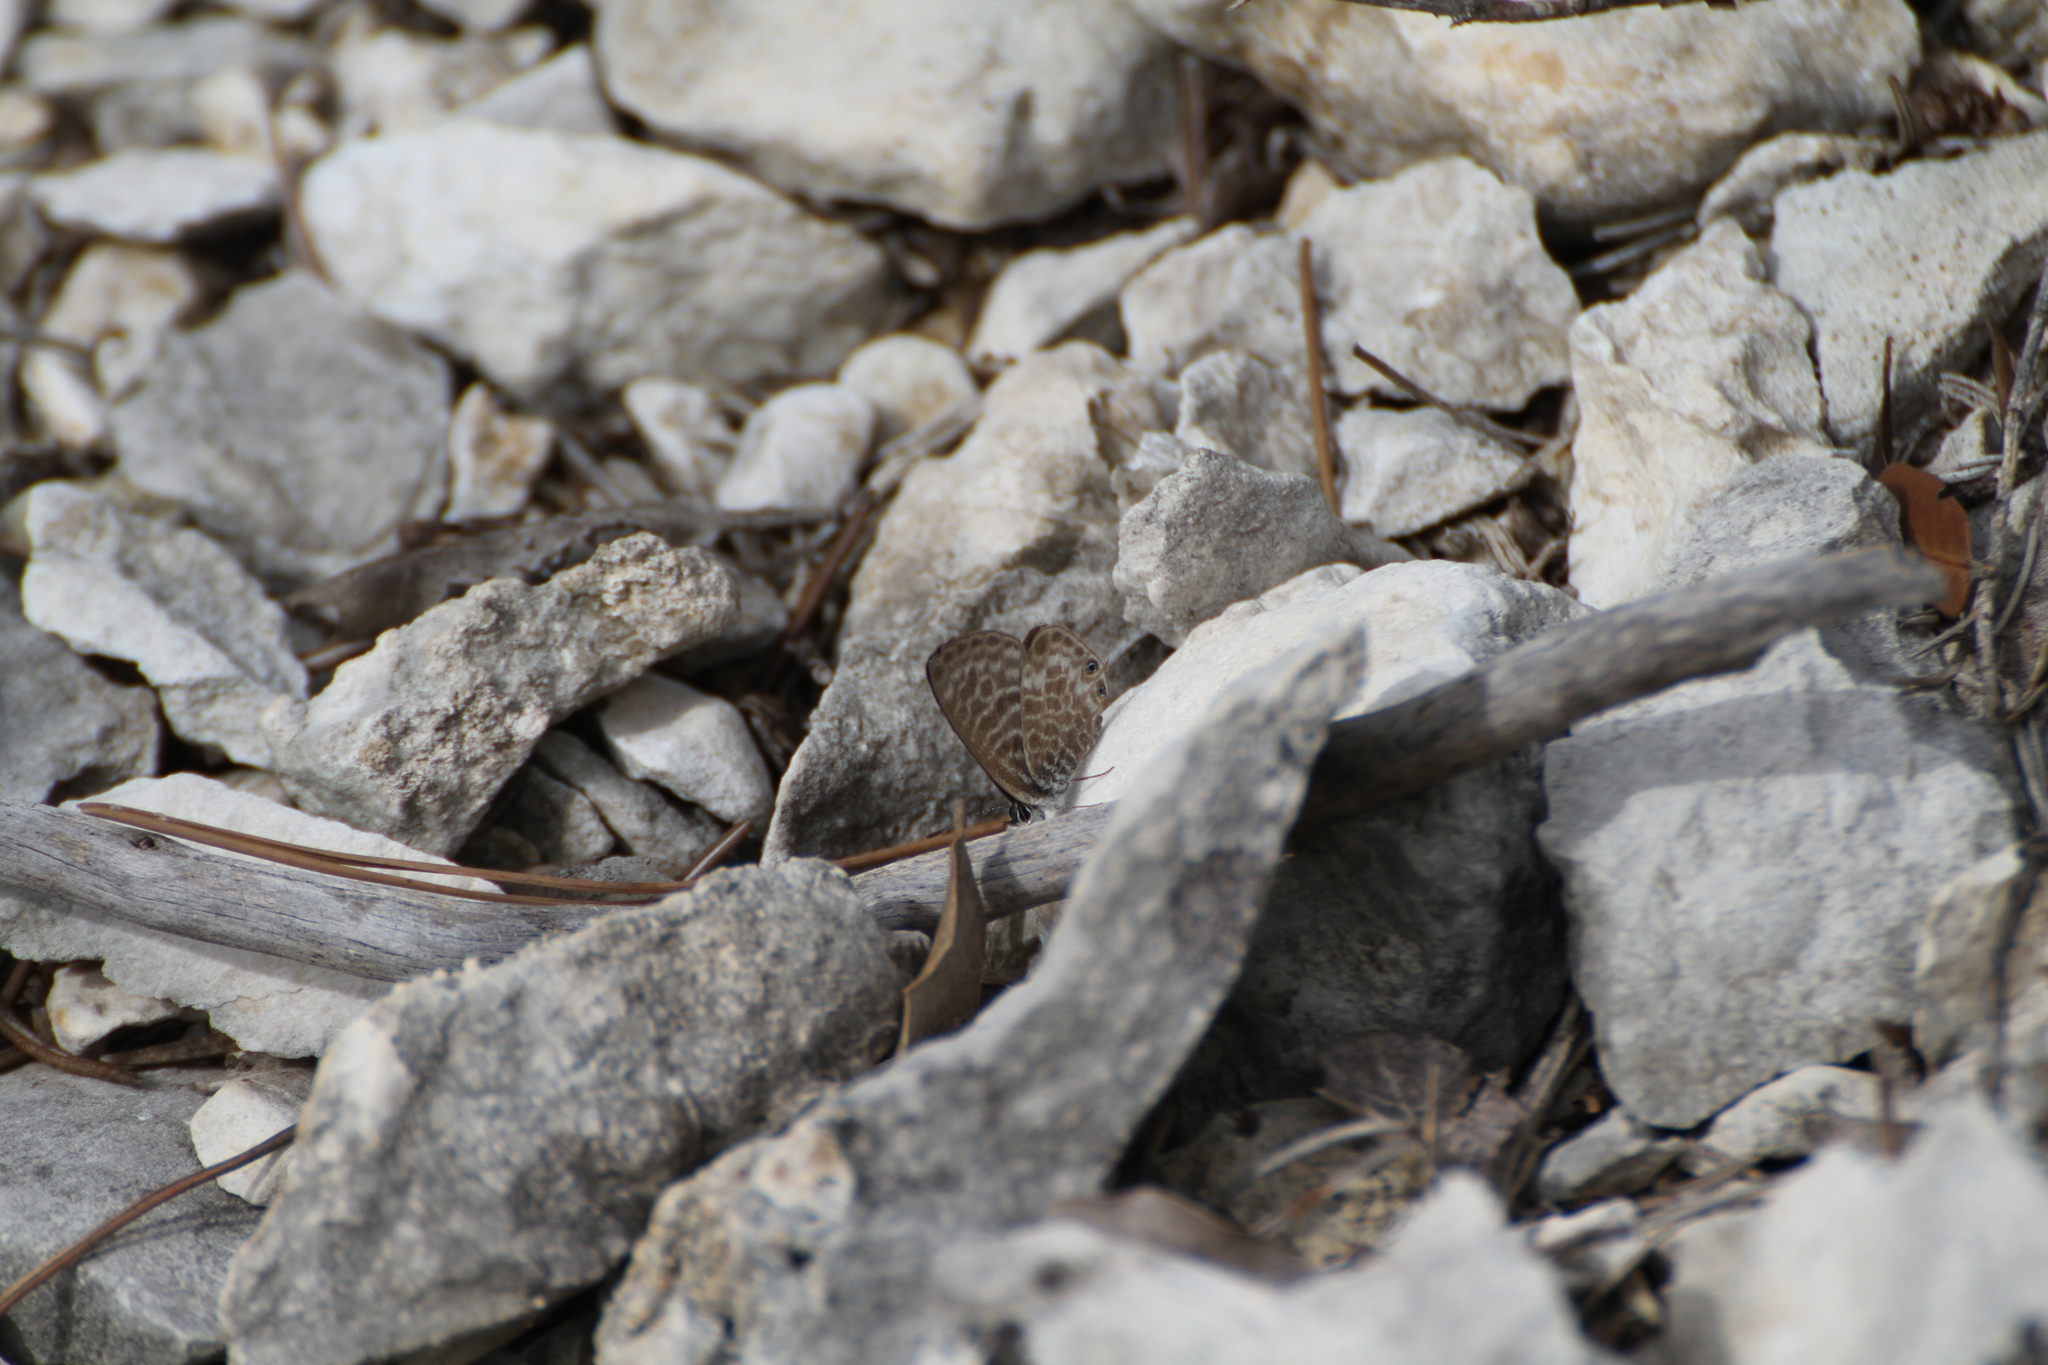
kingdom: Animalia
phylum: Arthropoda
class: Insecta
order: Lepidoptera
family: Lycaenidae
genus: Leptotes
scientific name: Leptotes pirithous
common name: Lang's short-tailed blue
